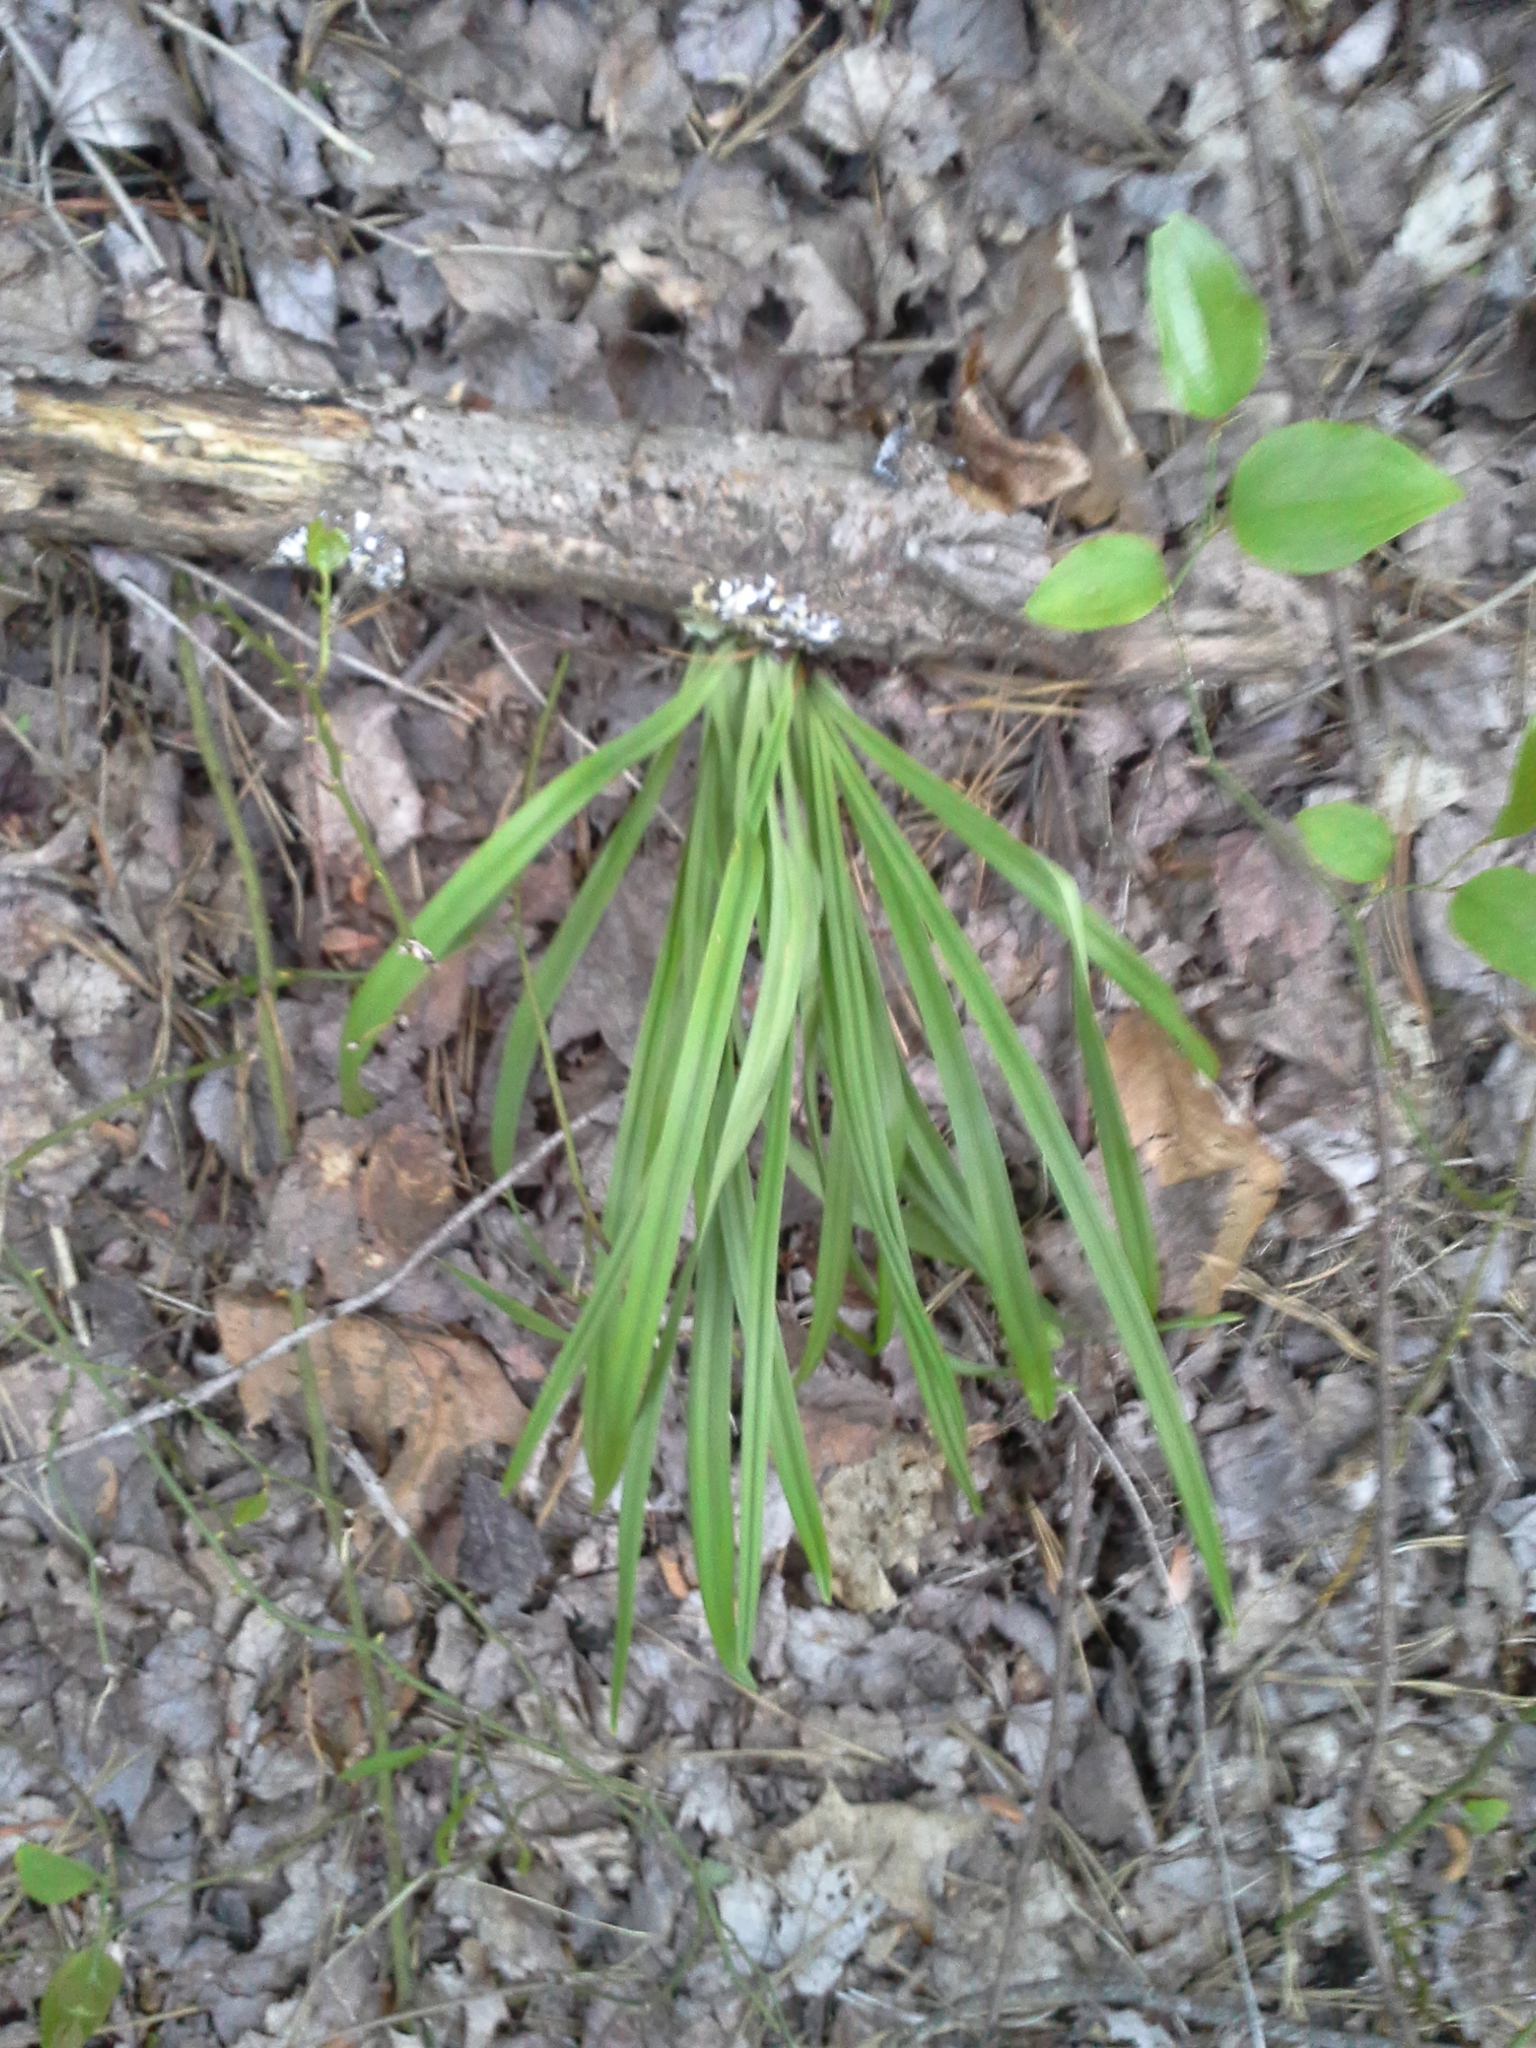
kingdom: Plantae
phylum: Tracheophyta
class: Liliopsida
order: Liliales
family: Melanthiaceae
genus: Amianthium
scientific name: Amianthium muscitoxicum
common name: Fly-poison
